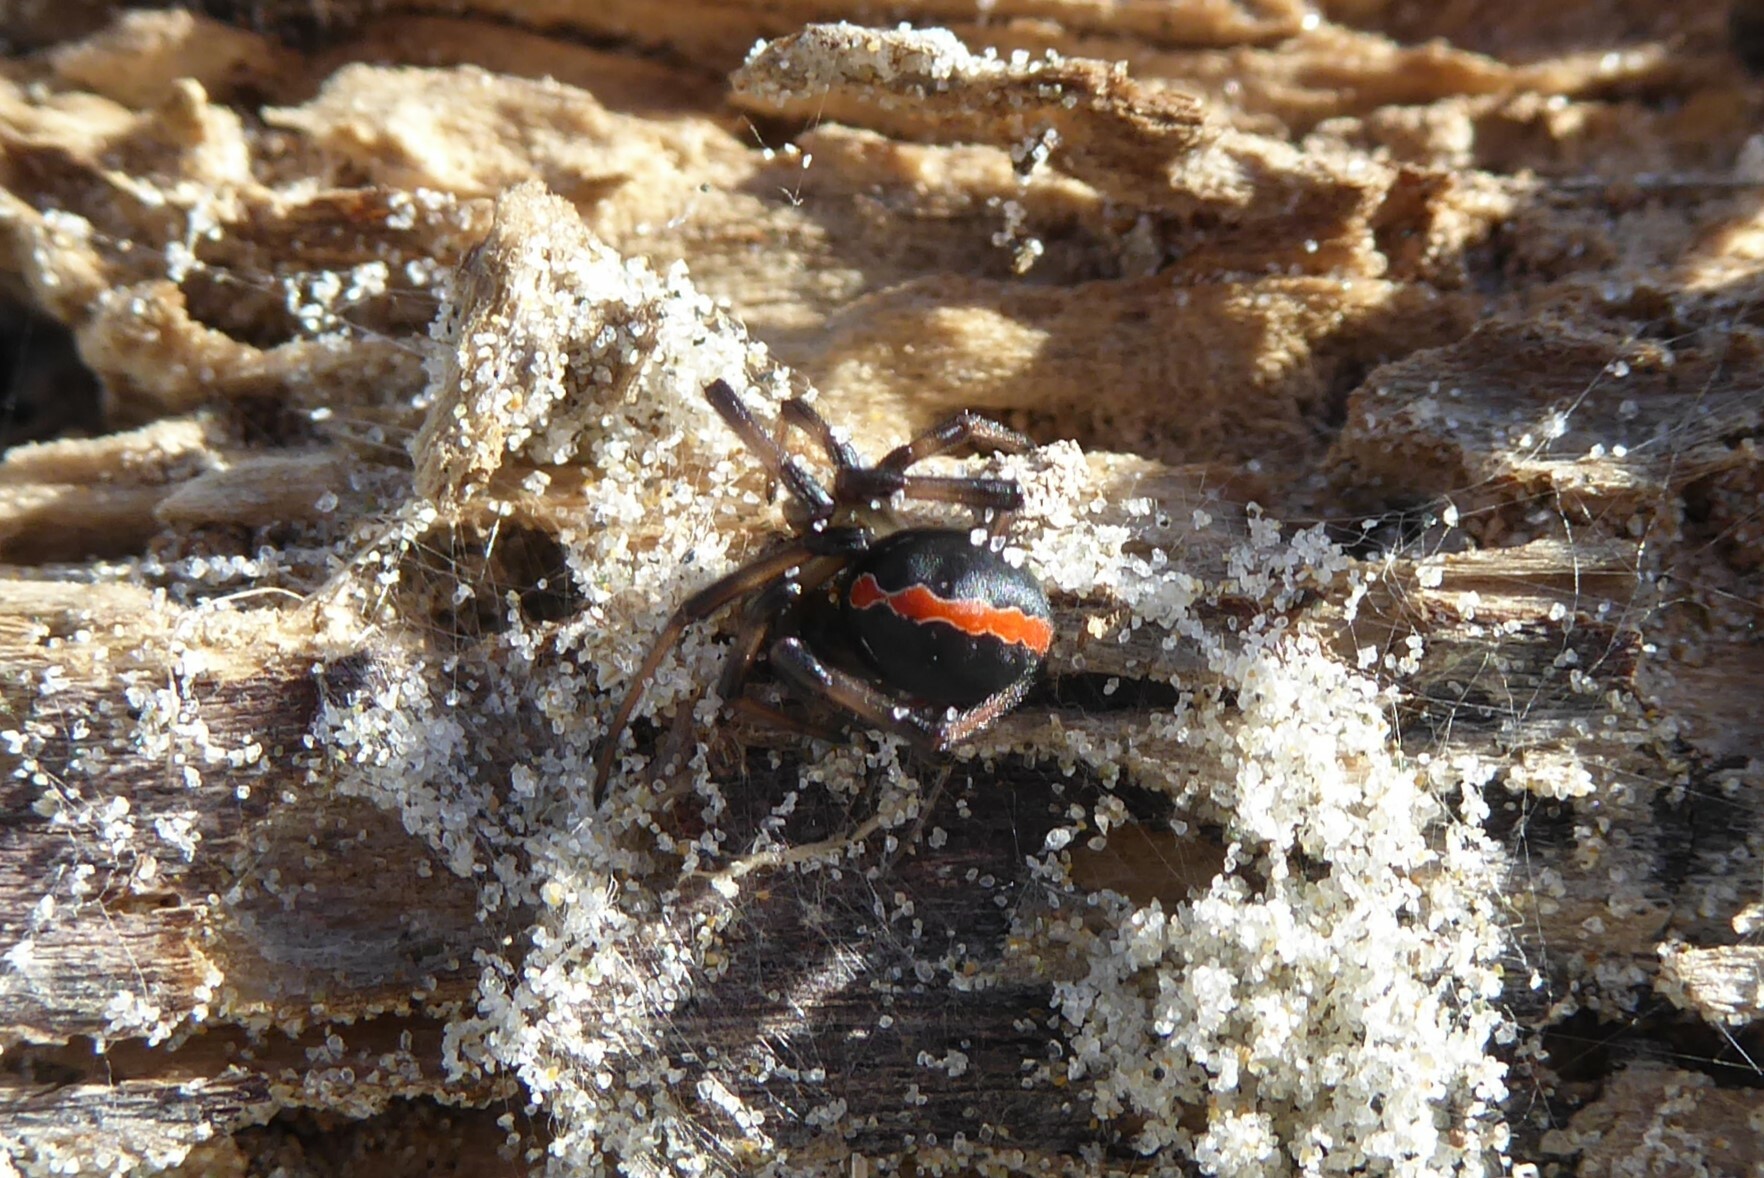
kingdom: Animalia
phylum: Arthropoda
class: Arachnida
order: Araneae
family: Theridiidae
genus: Latrodectus
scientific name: Latrodectus katipo
